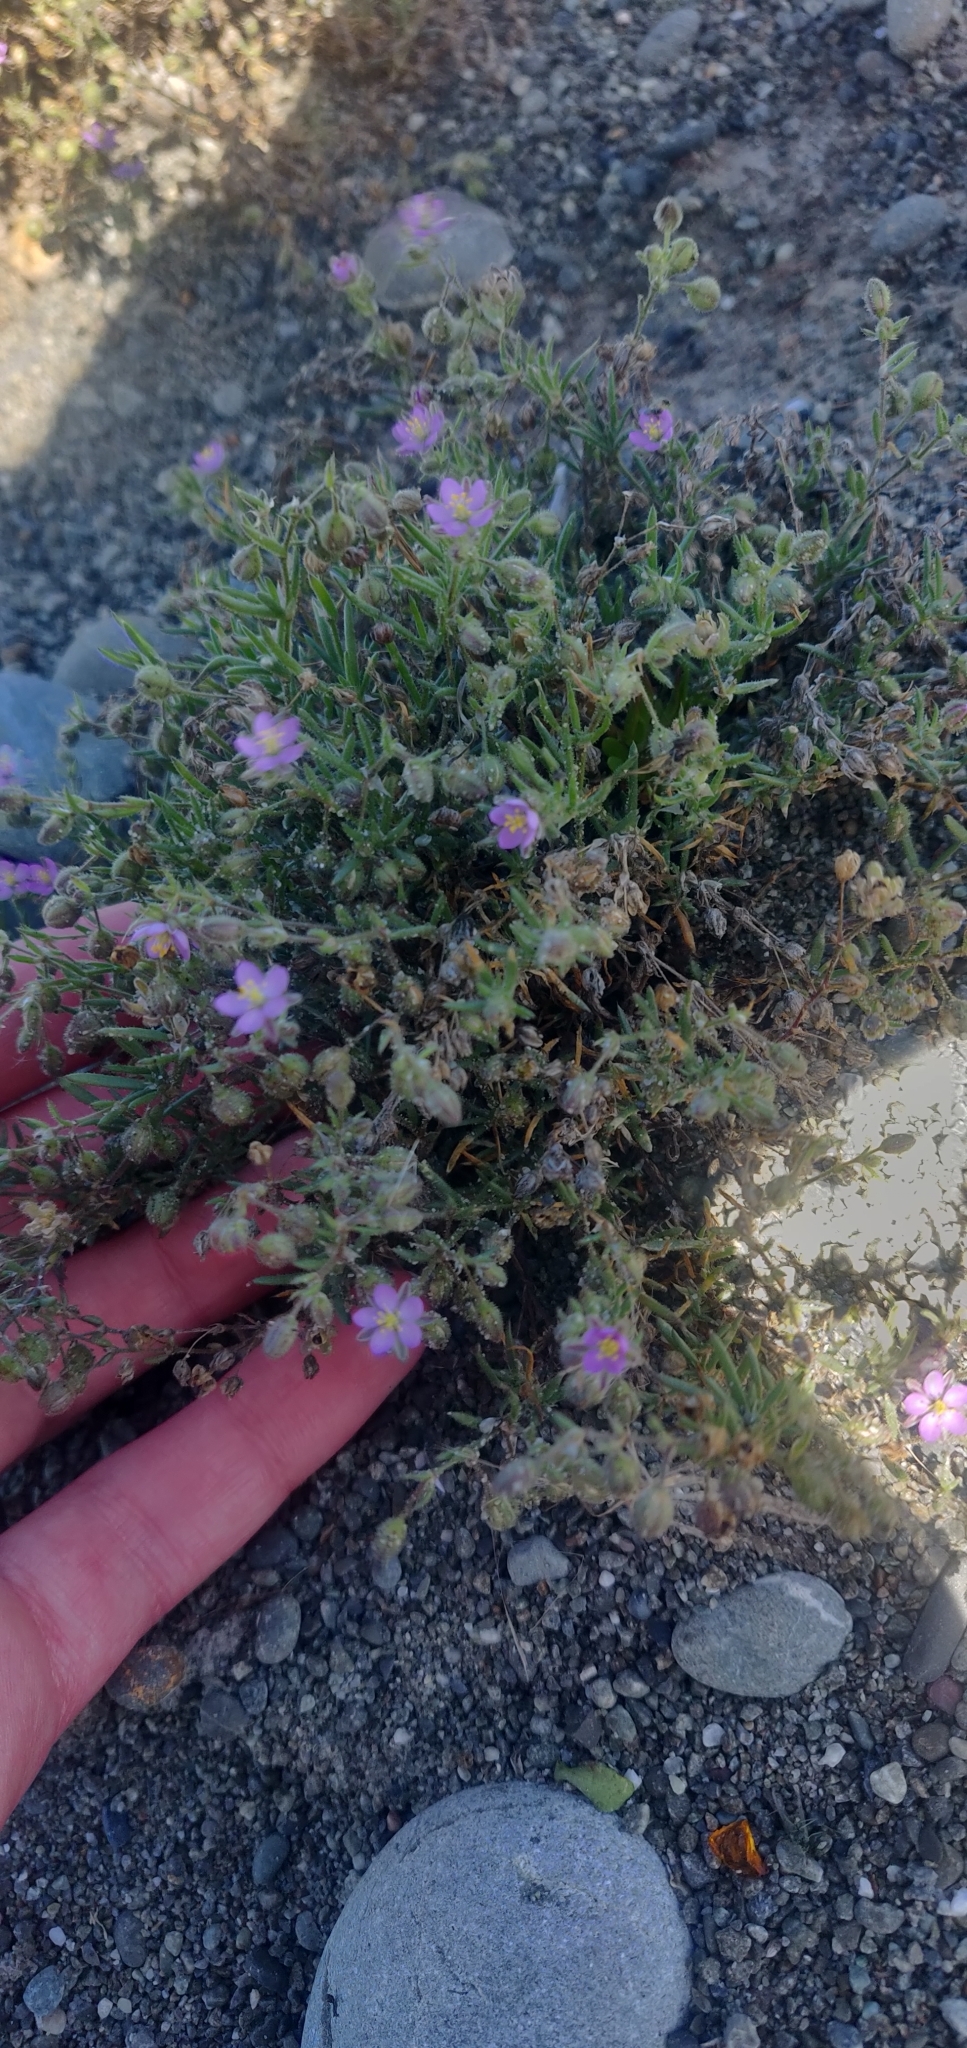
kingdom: Plantae
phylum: Tracheophyta
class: Magnoliopsida
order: Caryophyllales
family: Caryophyllaceae
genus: Spergularia
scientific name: Spergularia rubra
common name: Red sand-spurrey
